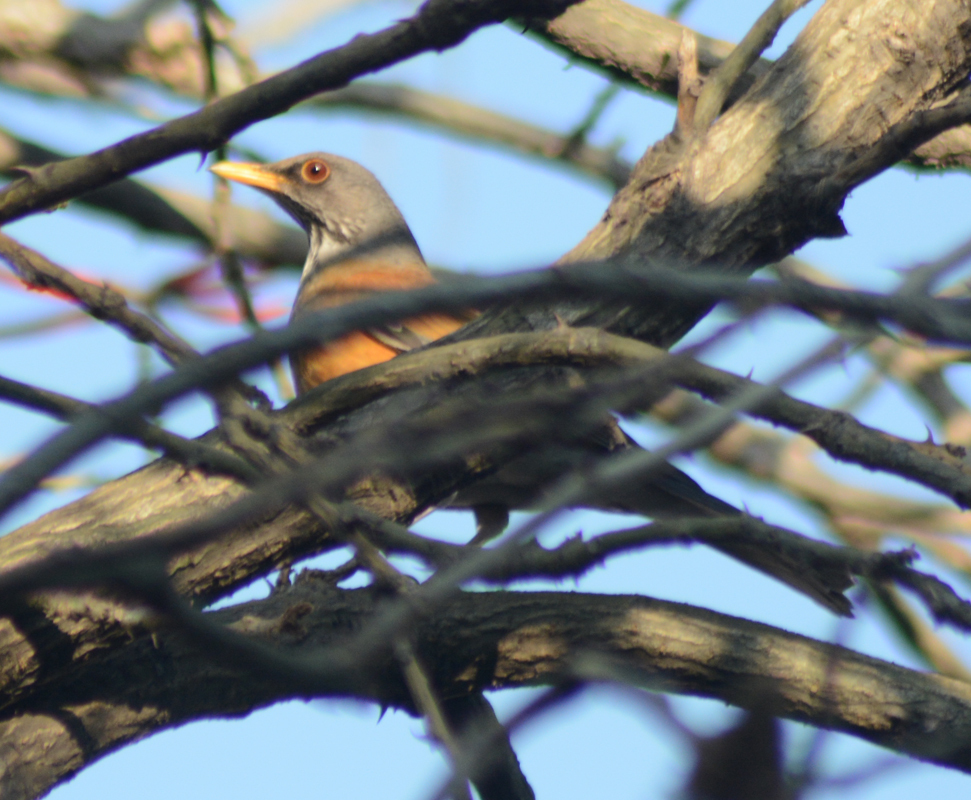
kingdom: Animalia
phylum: Chordata
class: Aves
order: Passeriformes
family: Turdidae
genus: Turdus
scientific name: Turdus rufopalliatus
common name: Rufous-backed robin
